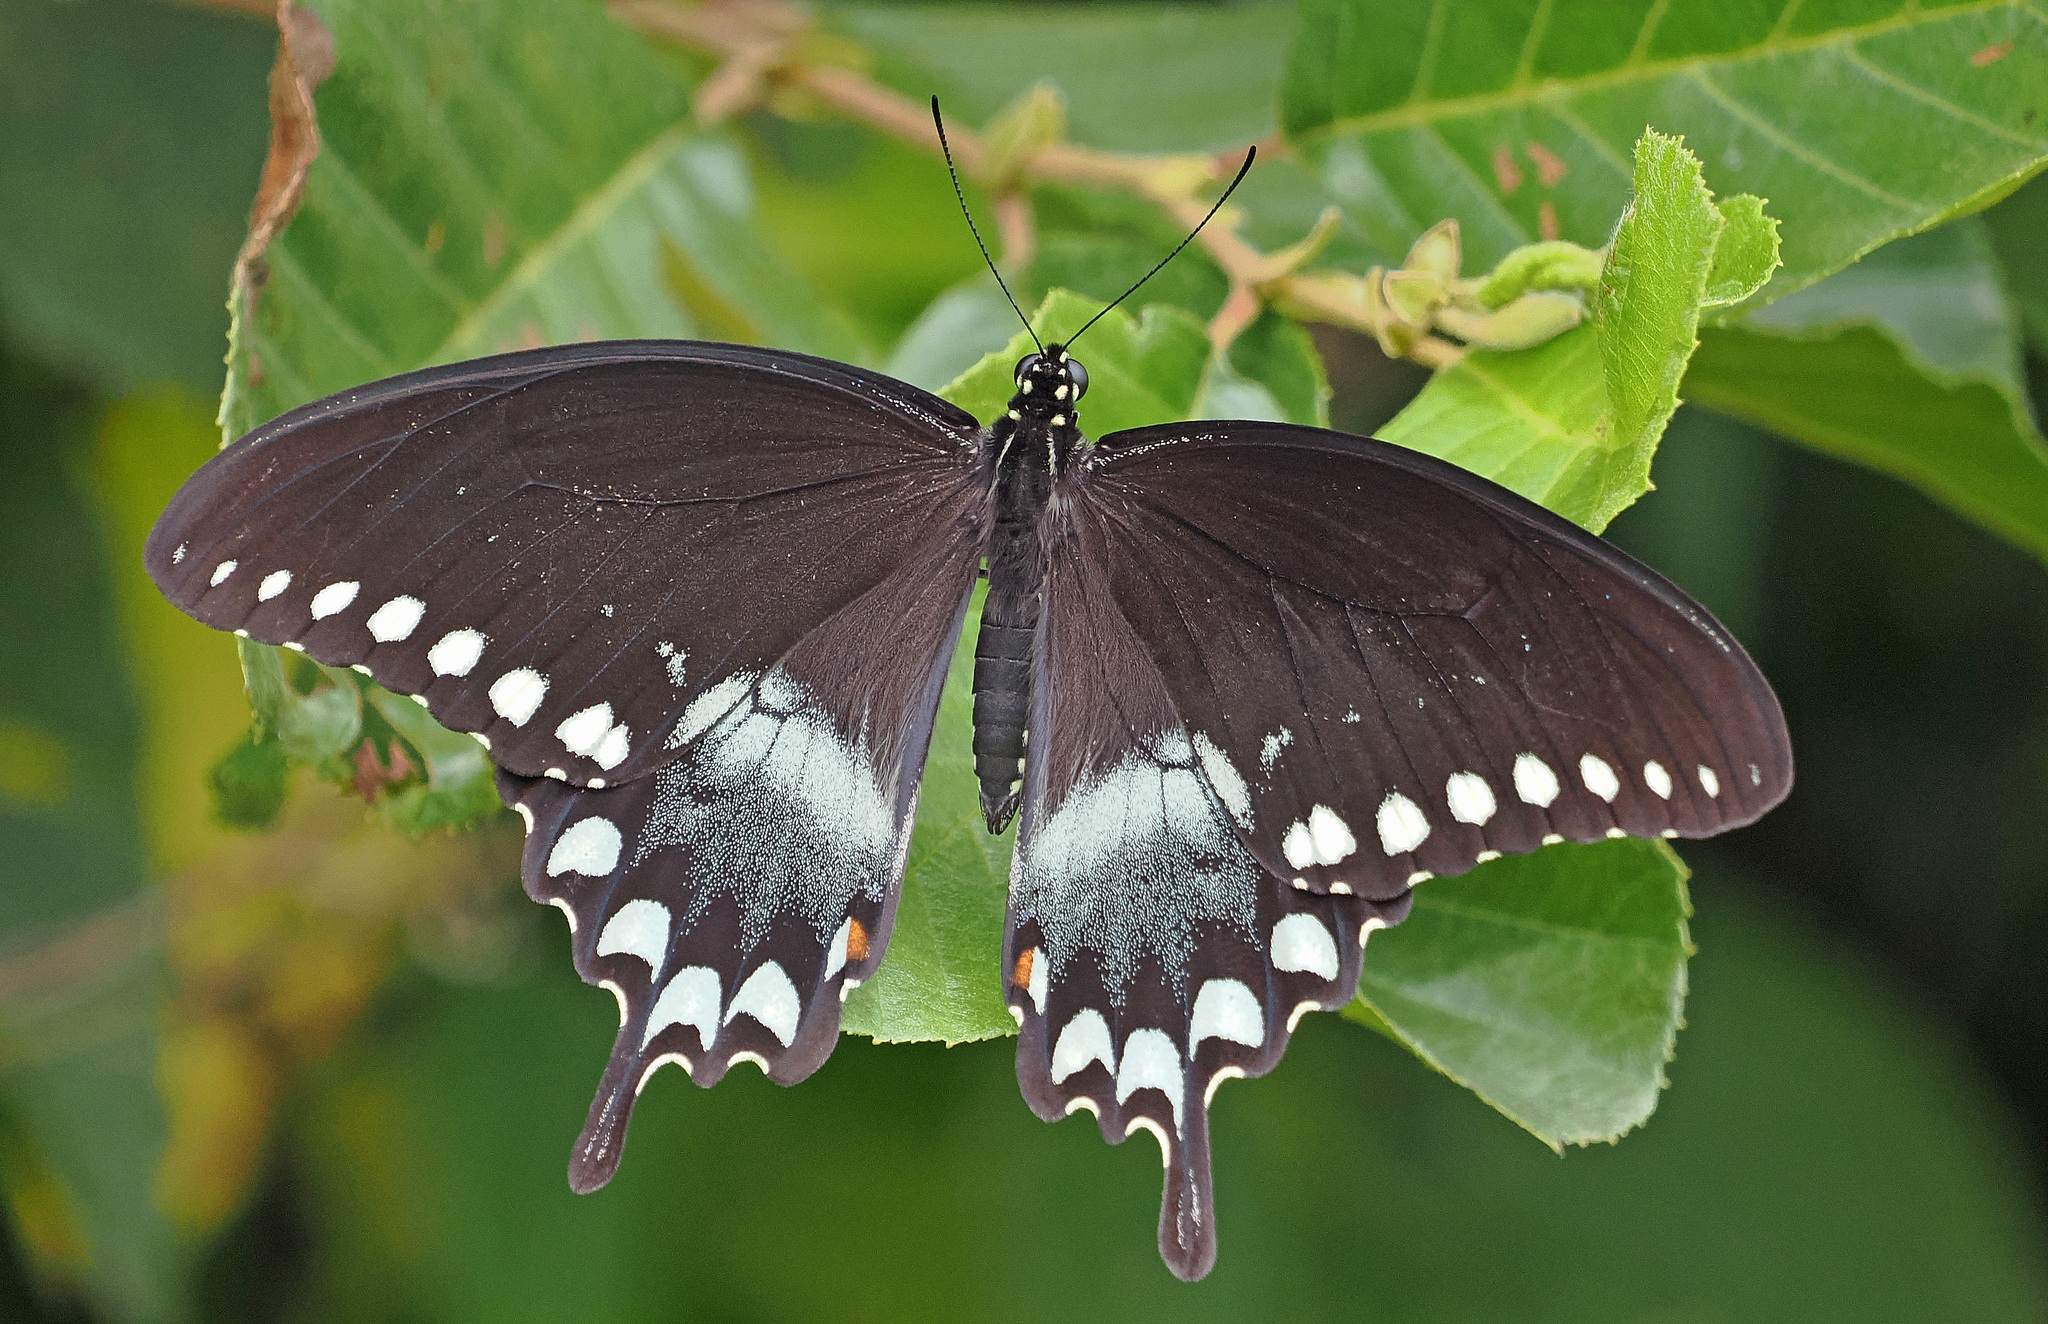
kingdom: Animalia
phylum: Arthropoda
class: Insecta
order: Lepidoptera
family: Papilionidae
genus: Papilio
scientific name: Papilio troilus
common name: Spicebush swallowtail
